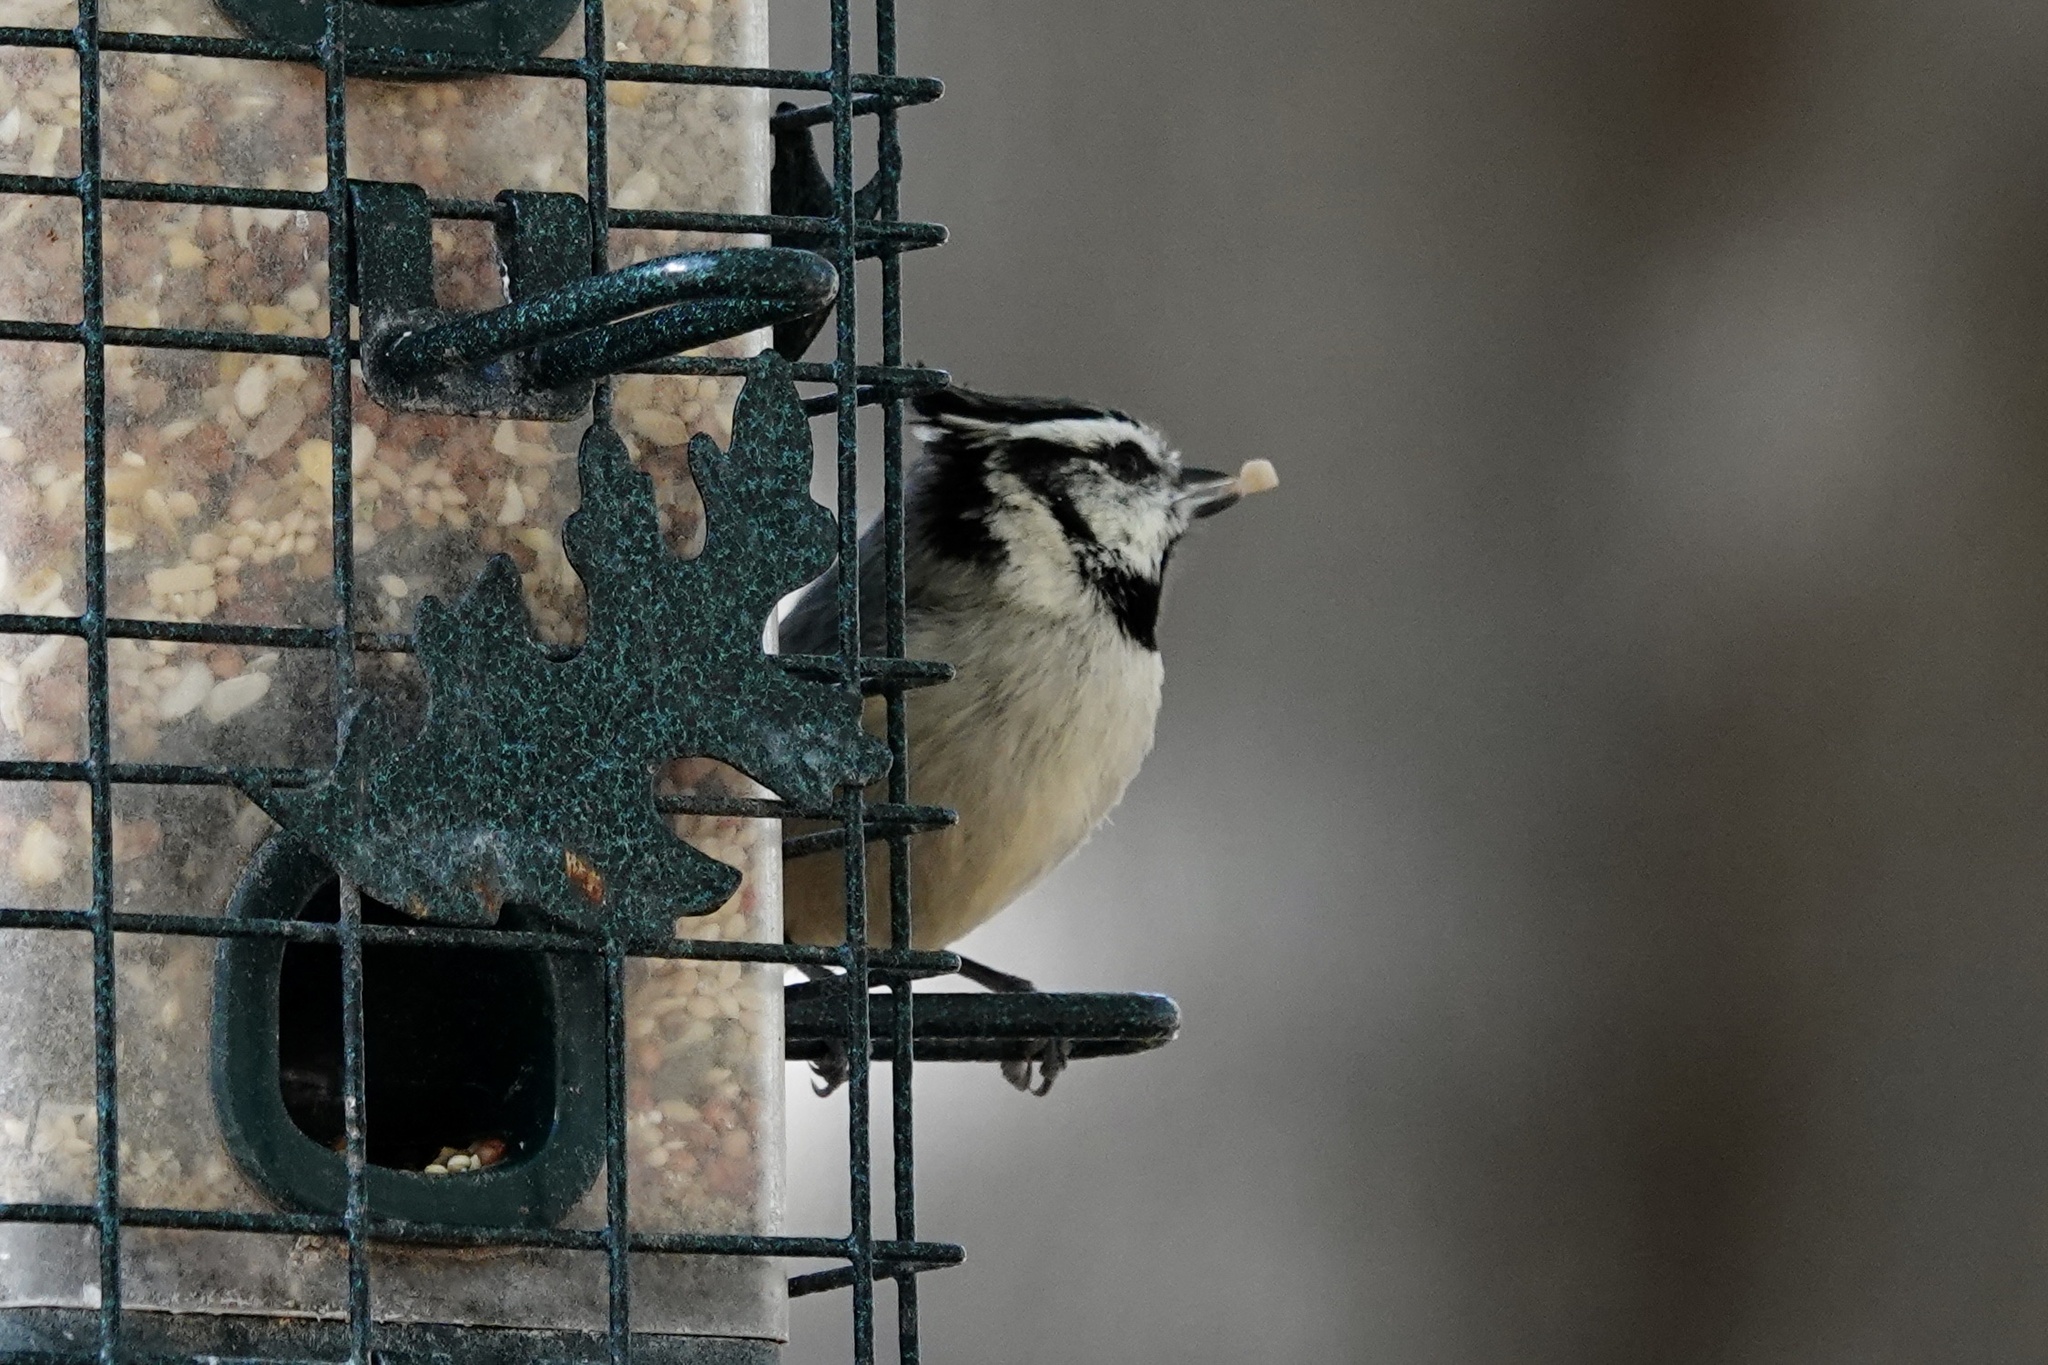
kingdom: Animalia
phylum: Chordata
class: Aves
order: Passeriformes
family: Paridae
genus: Baeolophus
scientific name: Baeolophus wollweberi
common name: Bridled titmouse
